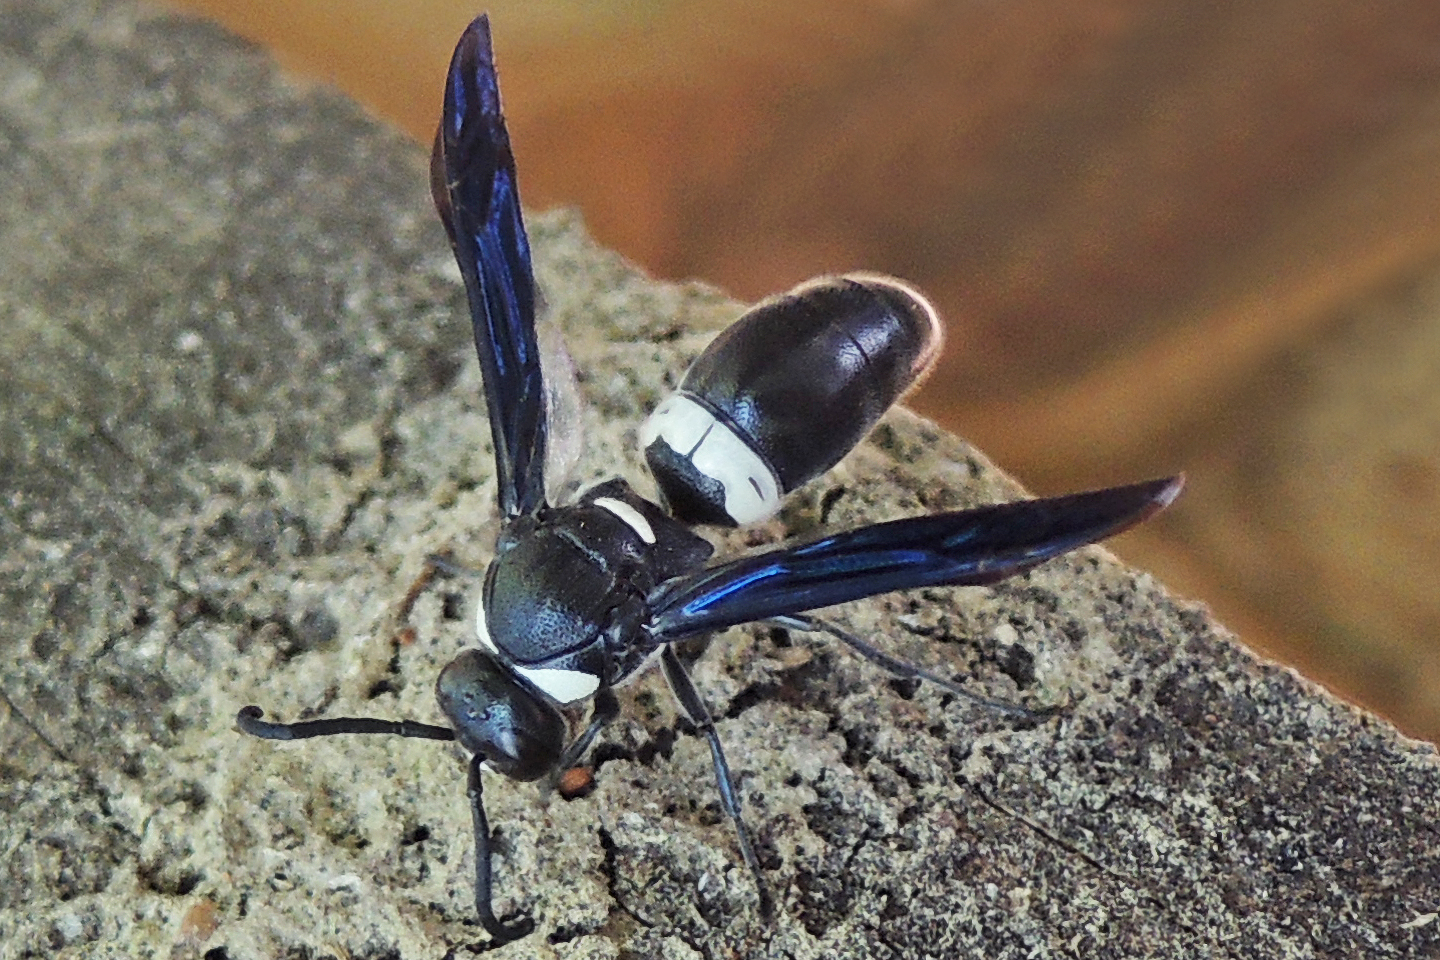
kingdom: Animalia
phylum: Arthropoda
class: Insecta
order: Hymenoptera
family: Eumenidae
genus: Monobia
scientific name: Monobia quadridens
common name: Four-toothed mason wasp
